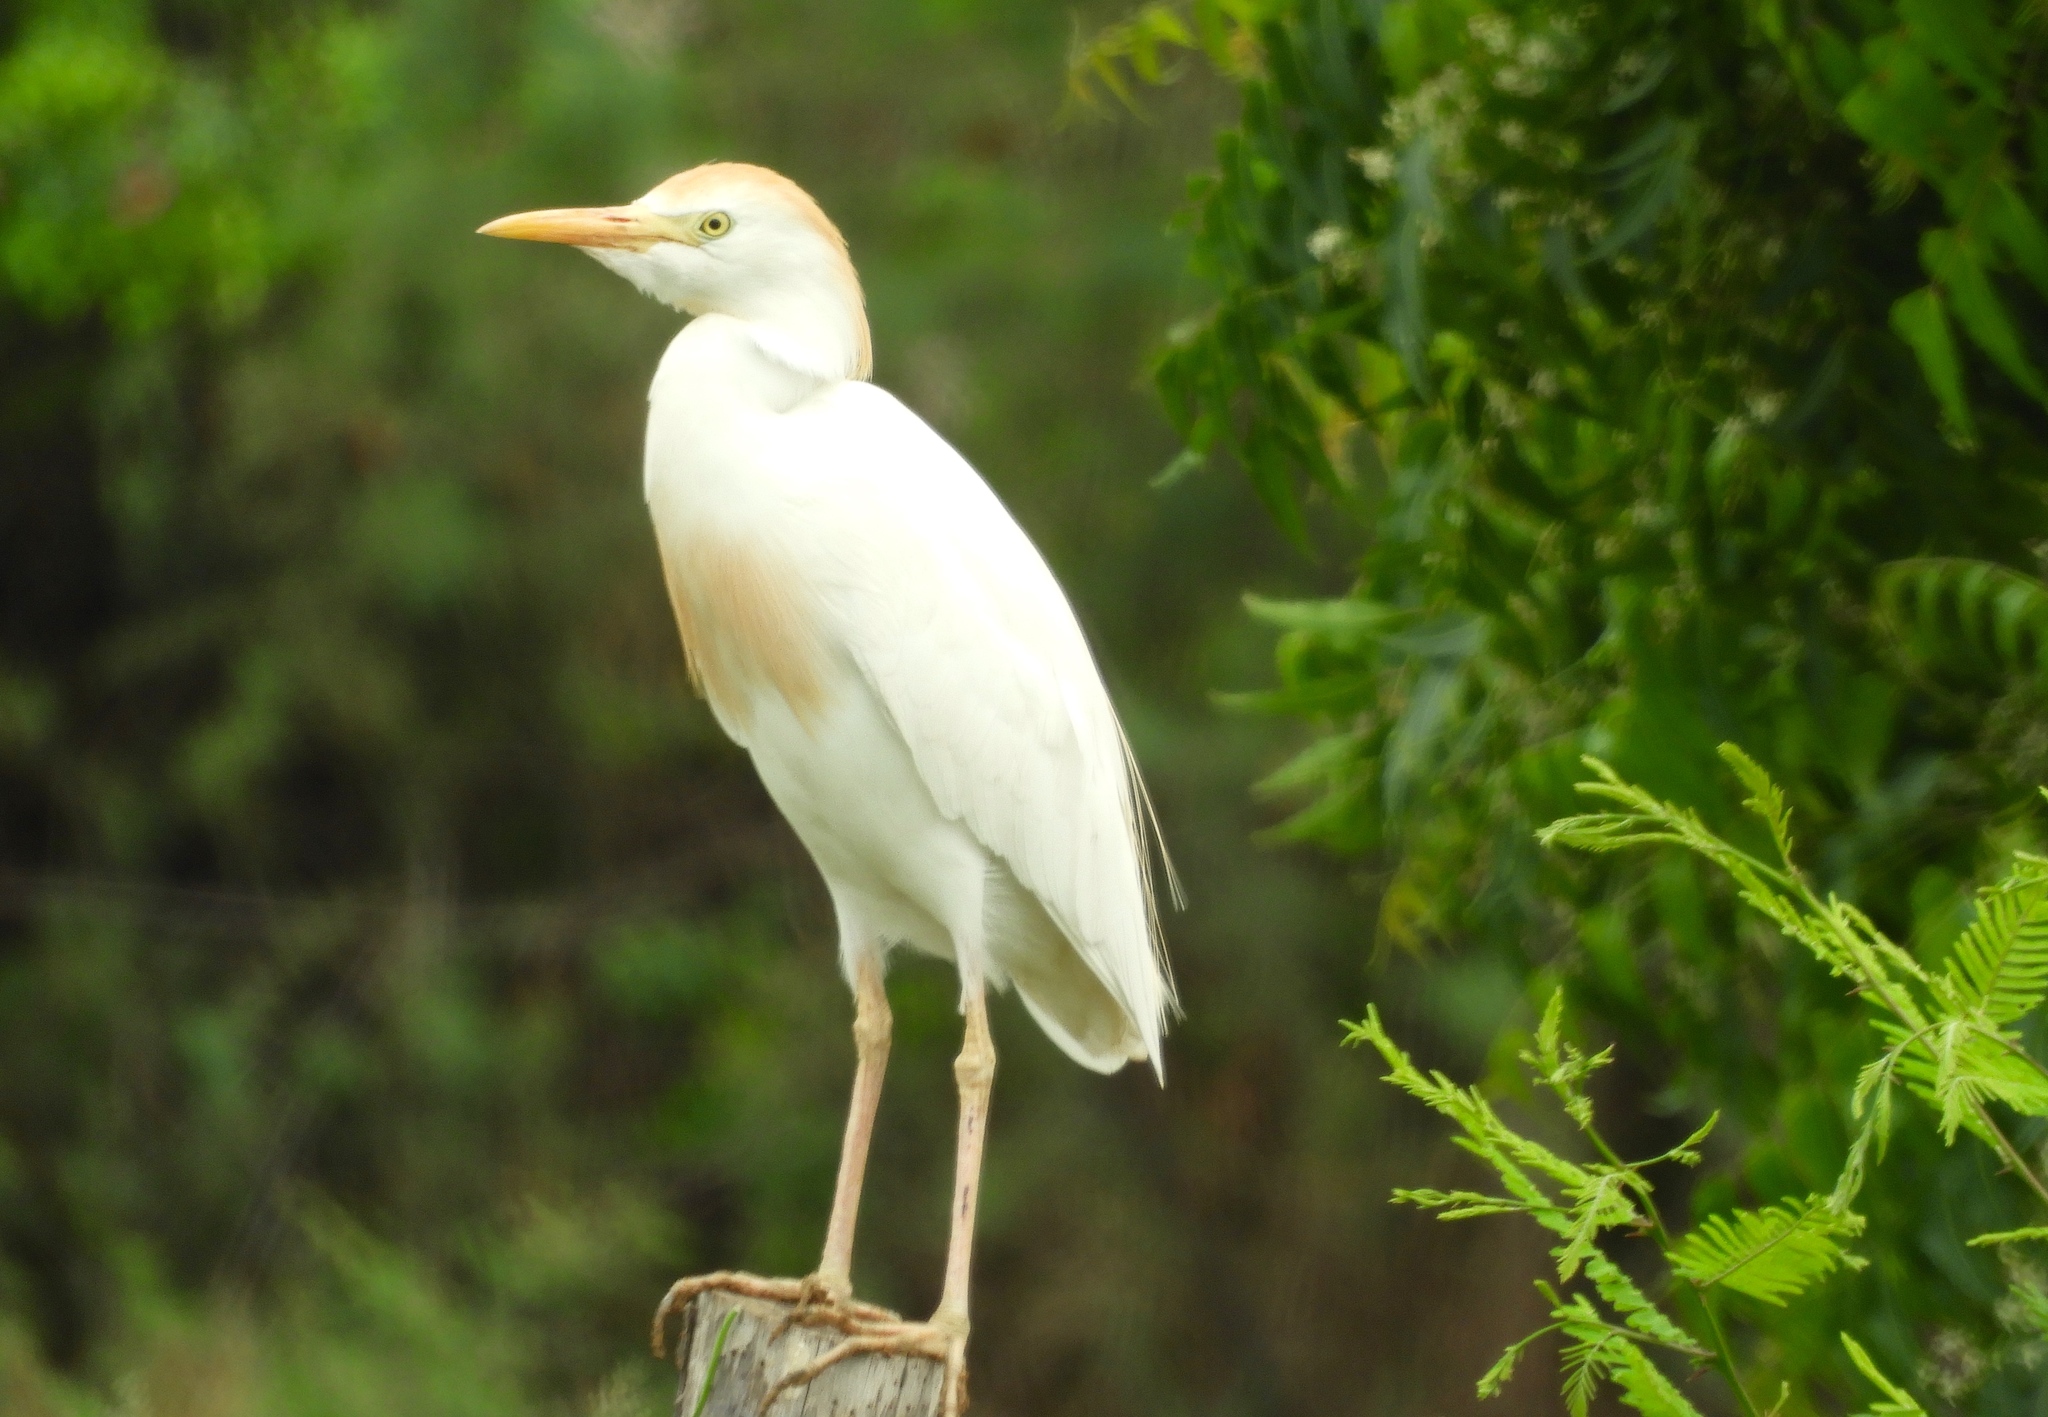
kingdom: Animalia
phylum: Chordata
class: Aves
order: Pelecaniformes
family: Ardeidae
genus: Bubulcus
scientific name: Bubulcus ibis
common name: Cattle egret
